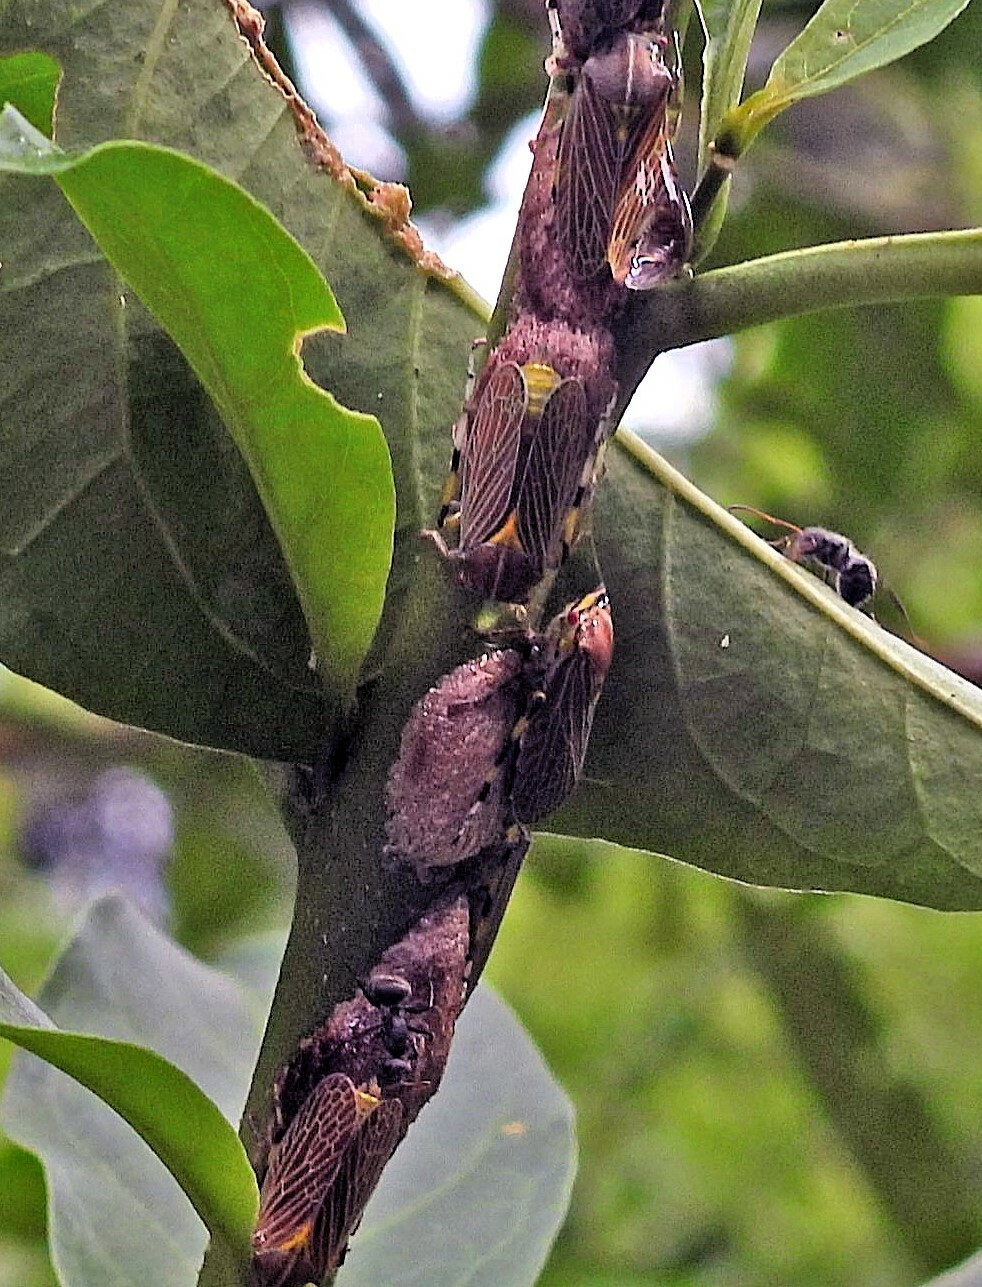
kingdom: Animalia
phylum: Arthropoda
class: Insecta
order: Hemiptera
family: Aetalionidae
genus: Aetalion
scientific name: Aetalion reticulatum
